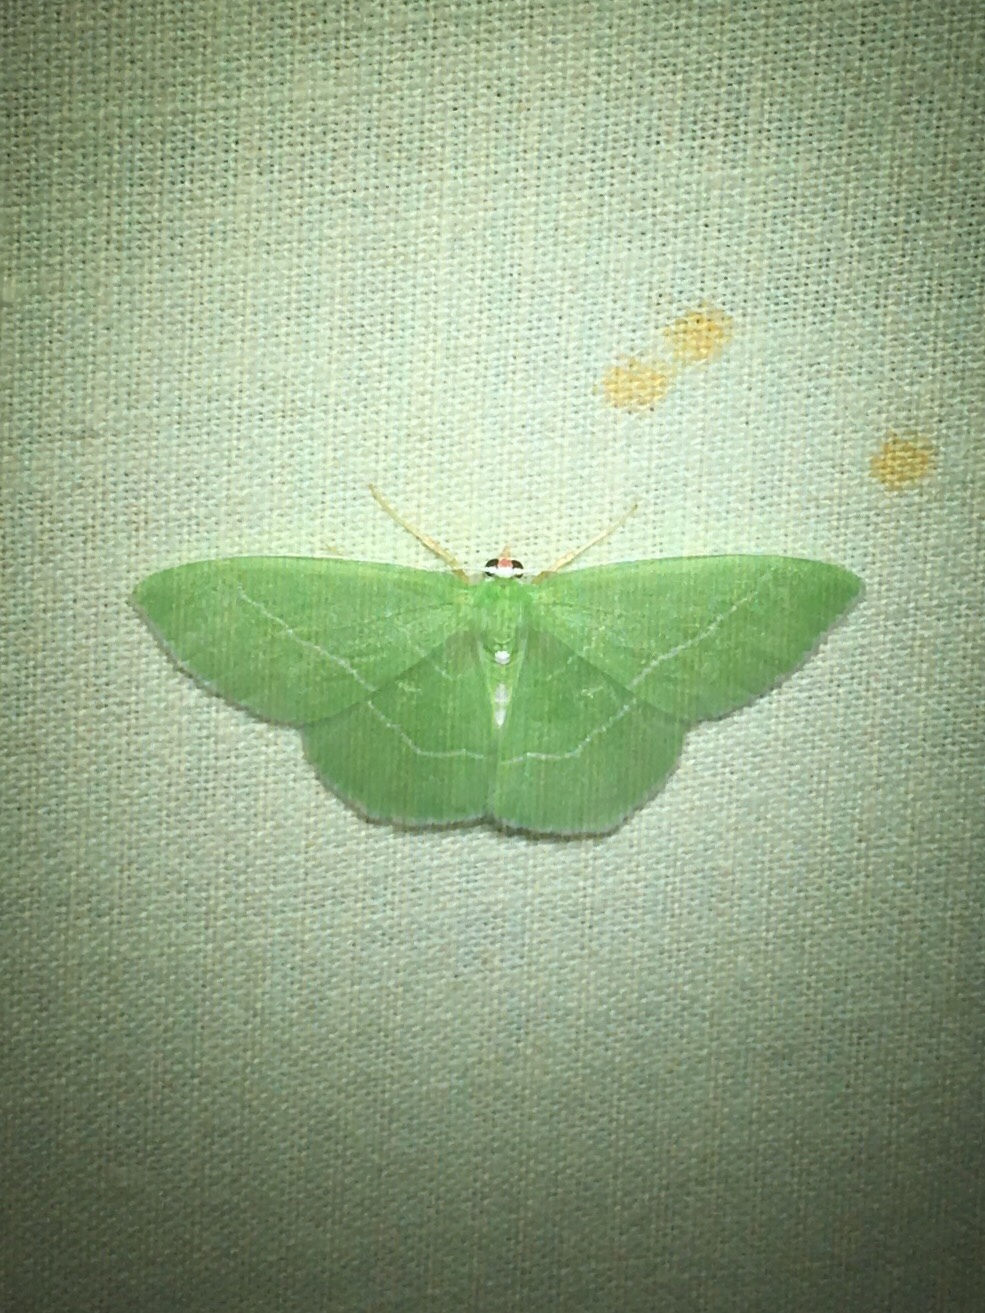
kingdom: Animalia
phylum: Arthropoda
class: Insecta
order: Lepidoptera
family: Geometridae
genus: Nemoria
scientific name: Nemoria mimosaria
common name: White-fringed emerald
